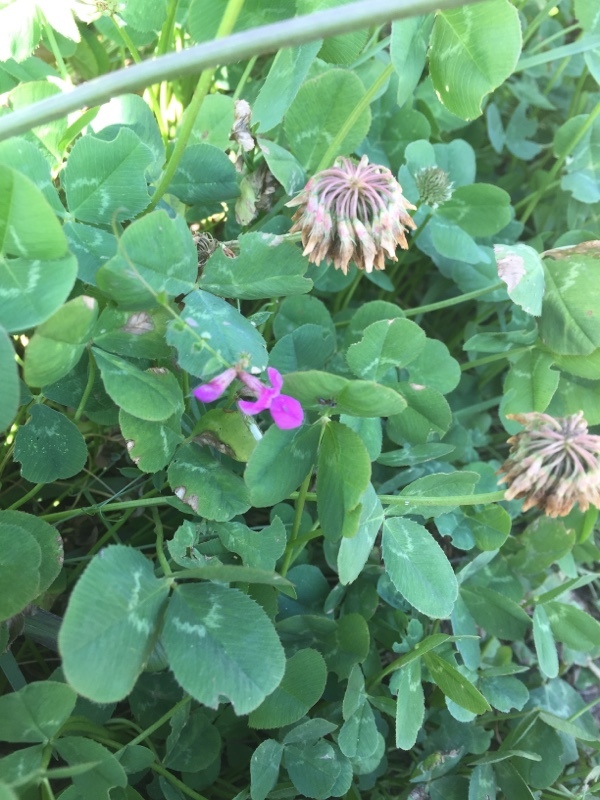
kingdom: Plantae
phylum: Tracheophyta
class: Magnoliopsida
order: Fabales
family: Fabaceae
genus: Trifolium
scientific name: Trifolium repens
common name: White clover
